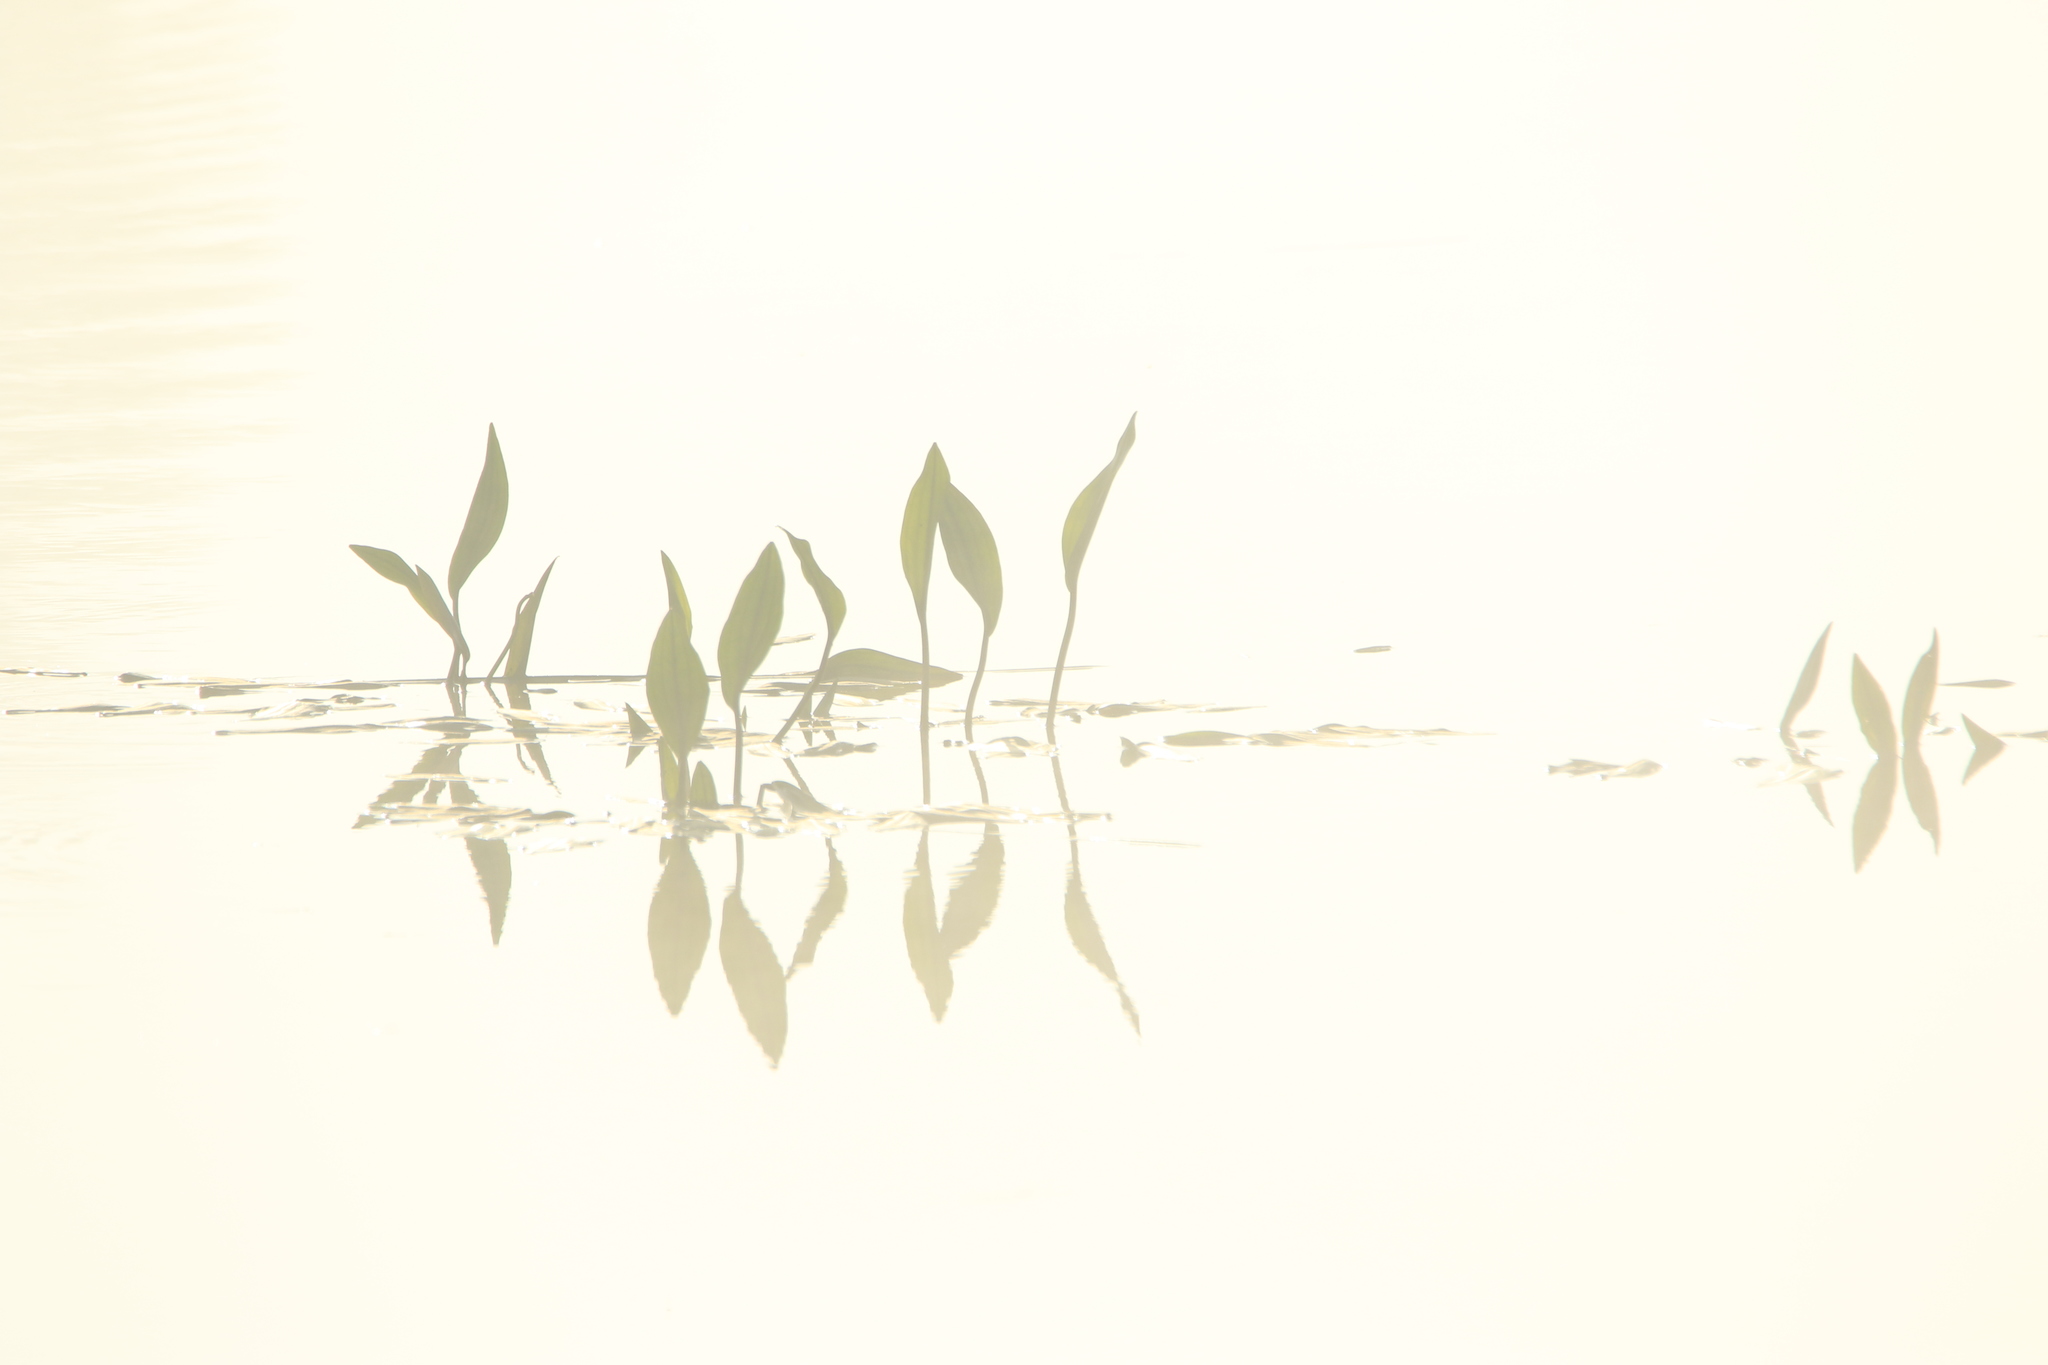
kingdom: Plantae
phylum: Tracheophyta
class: Liliopsida
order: Alismatales
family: Alismataceae
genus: Alisma
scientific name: Alisma plantago-aquatica
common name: Water-plantain
